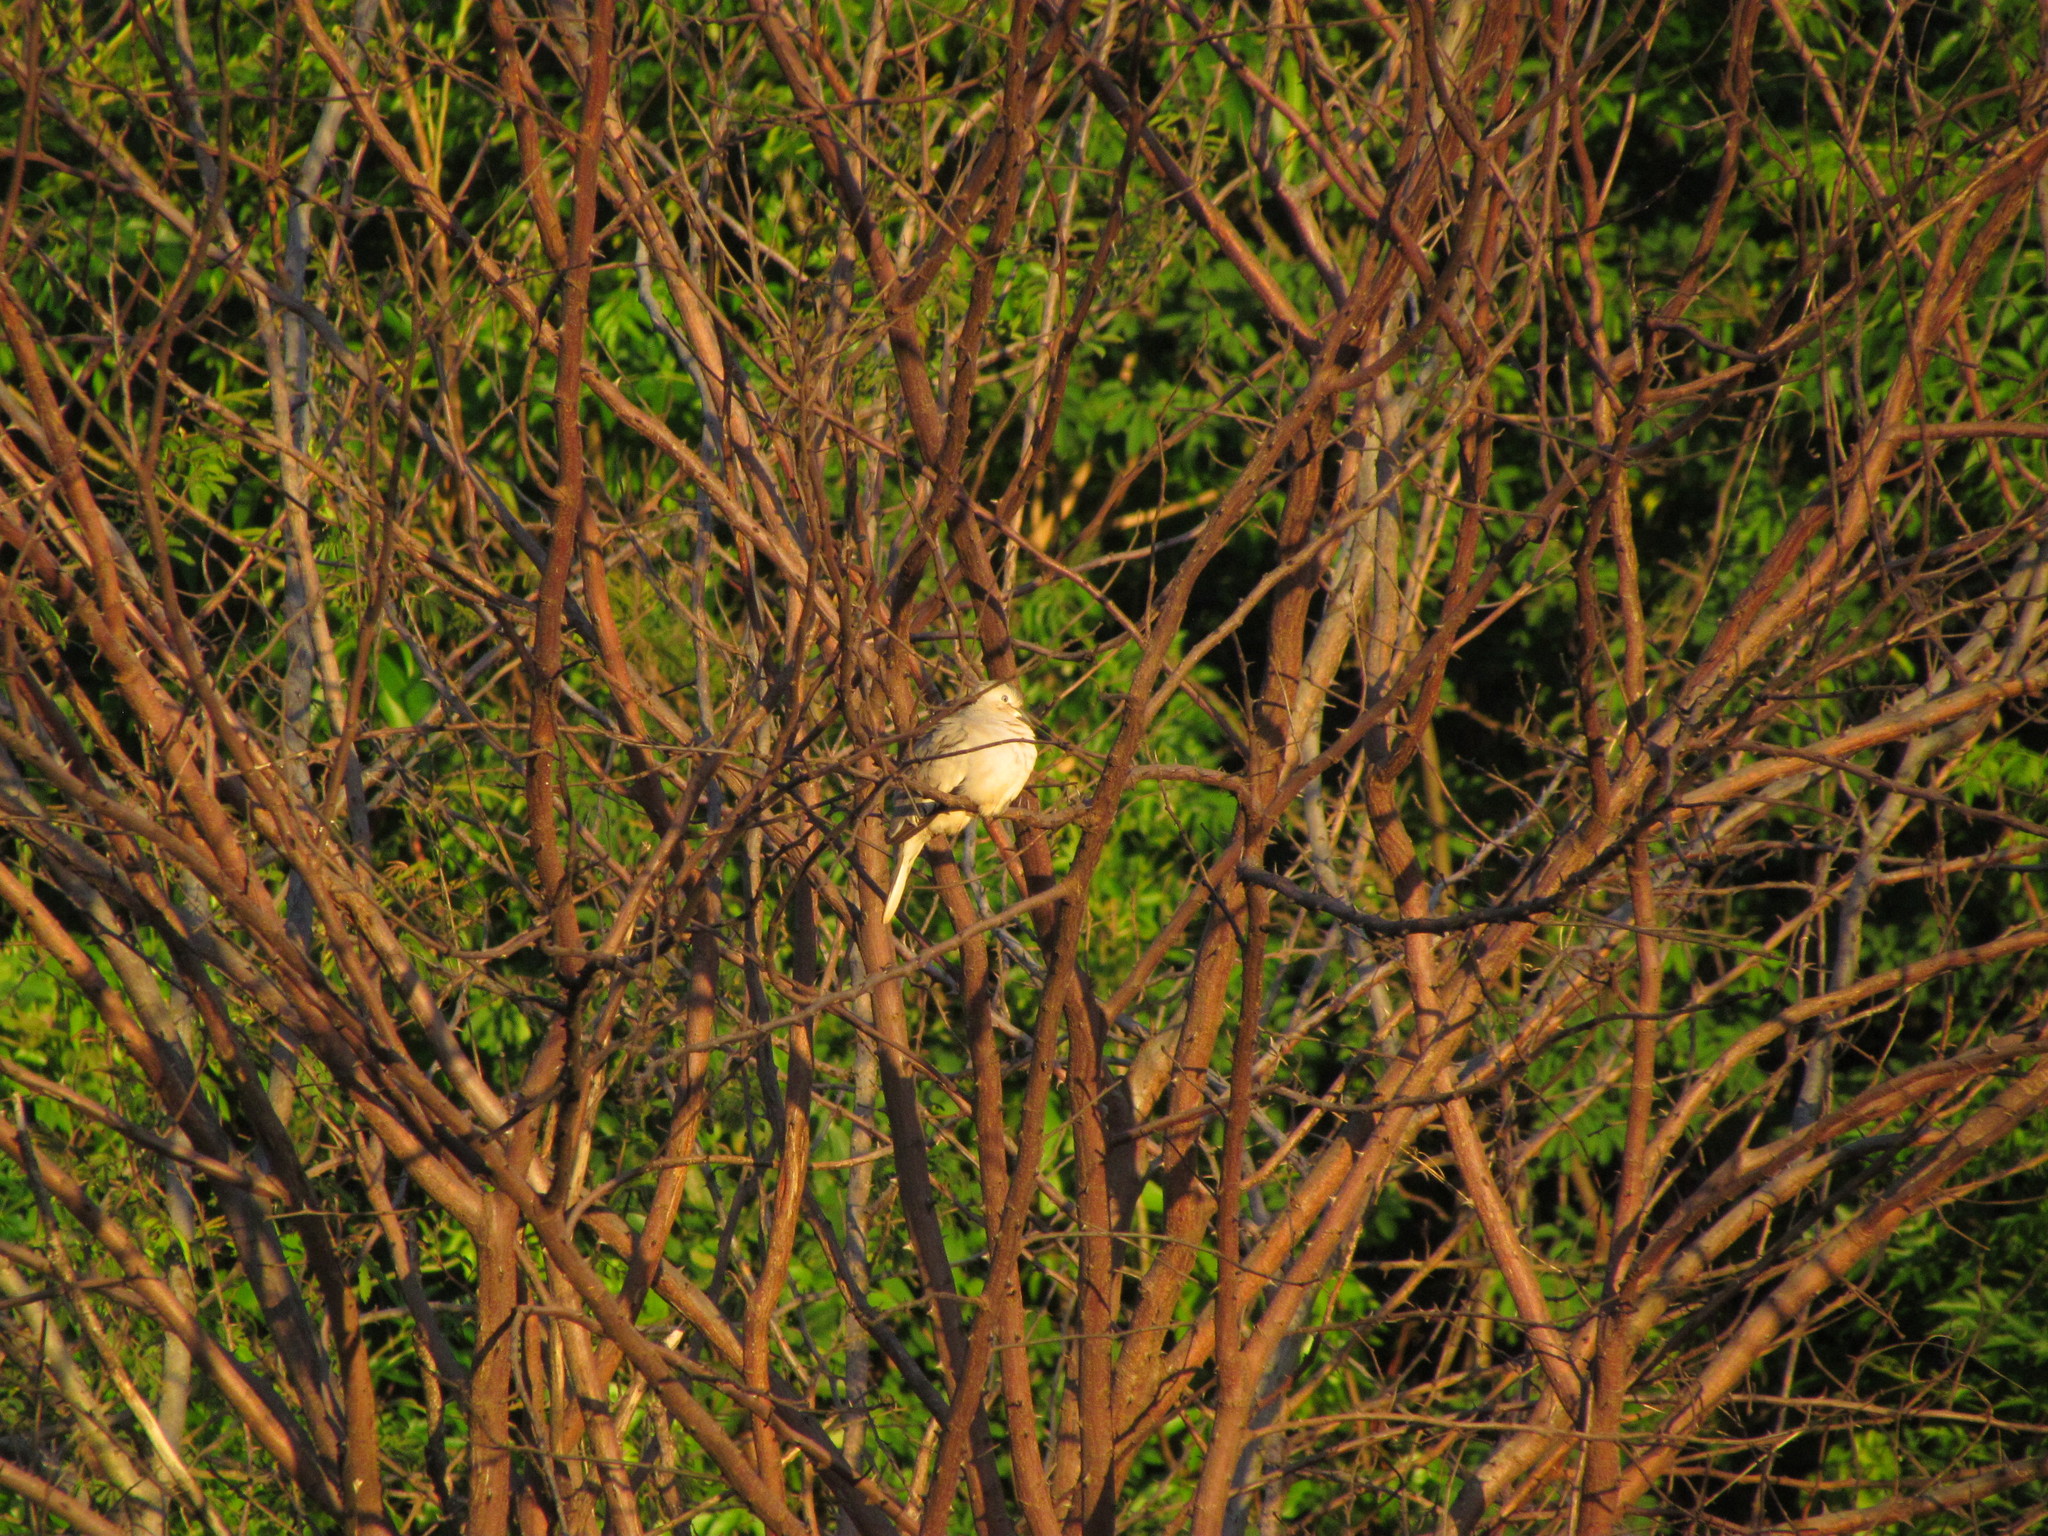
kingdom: Animalia
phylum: Chordata
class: Aves
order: Columbiformes
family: Columbidae
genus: Columbina
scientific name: Columbina picui
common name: Picui ground dove
